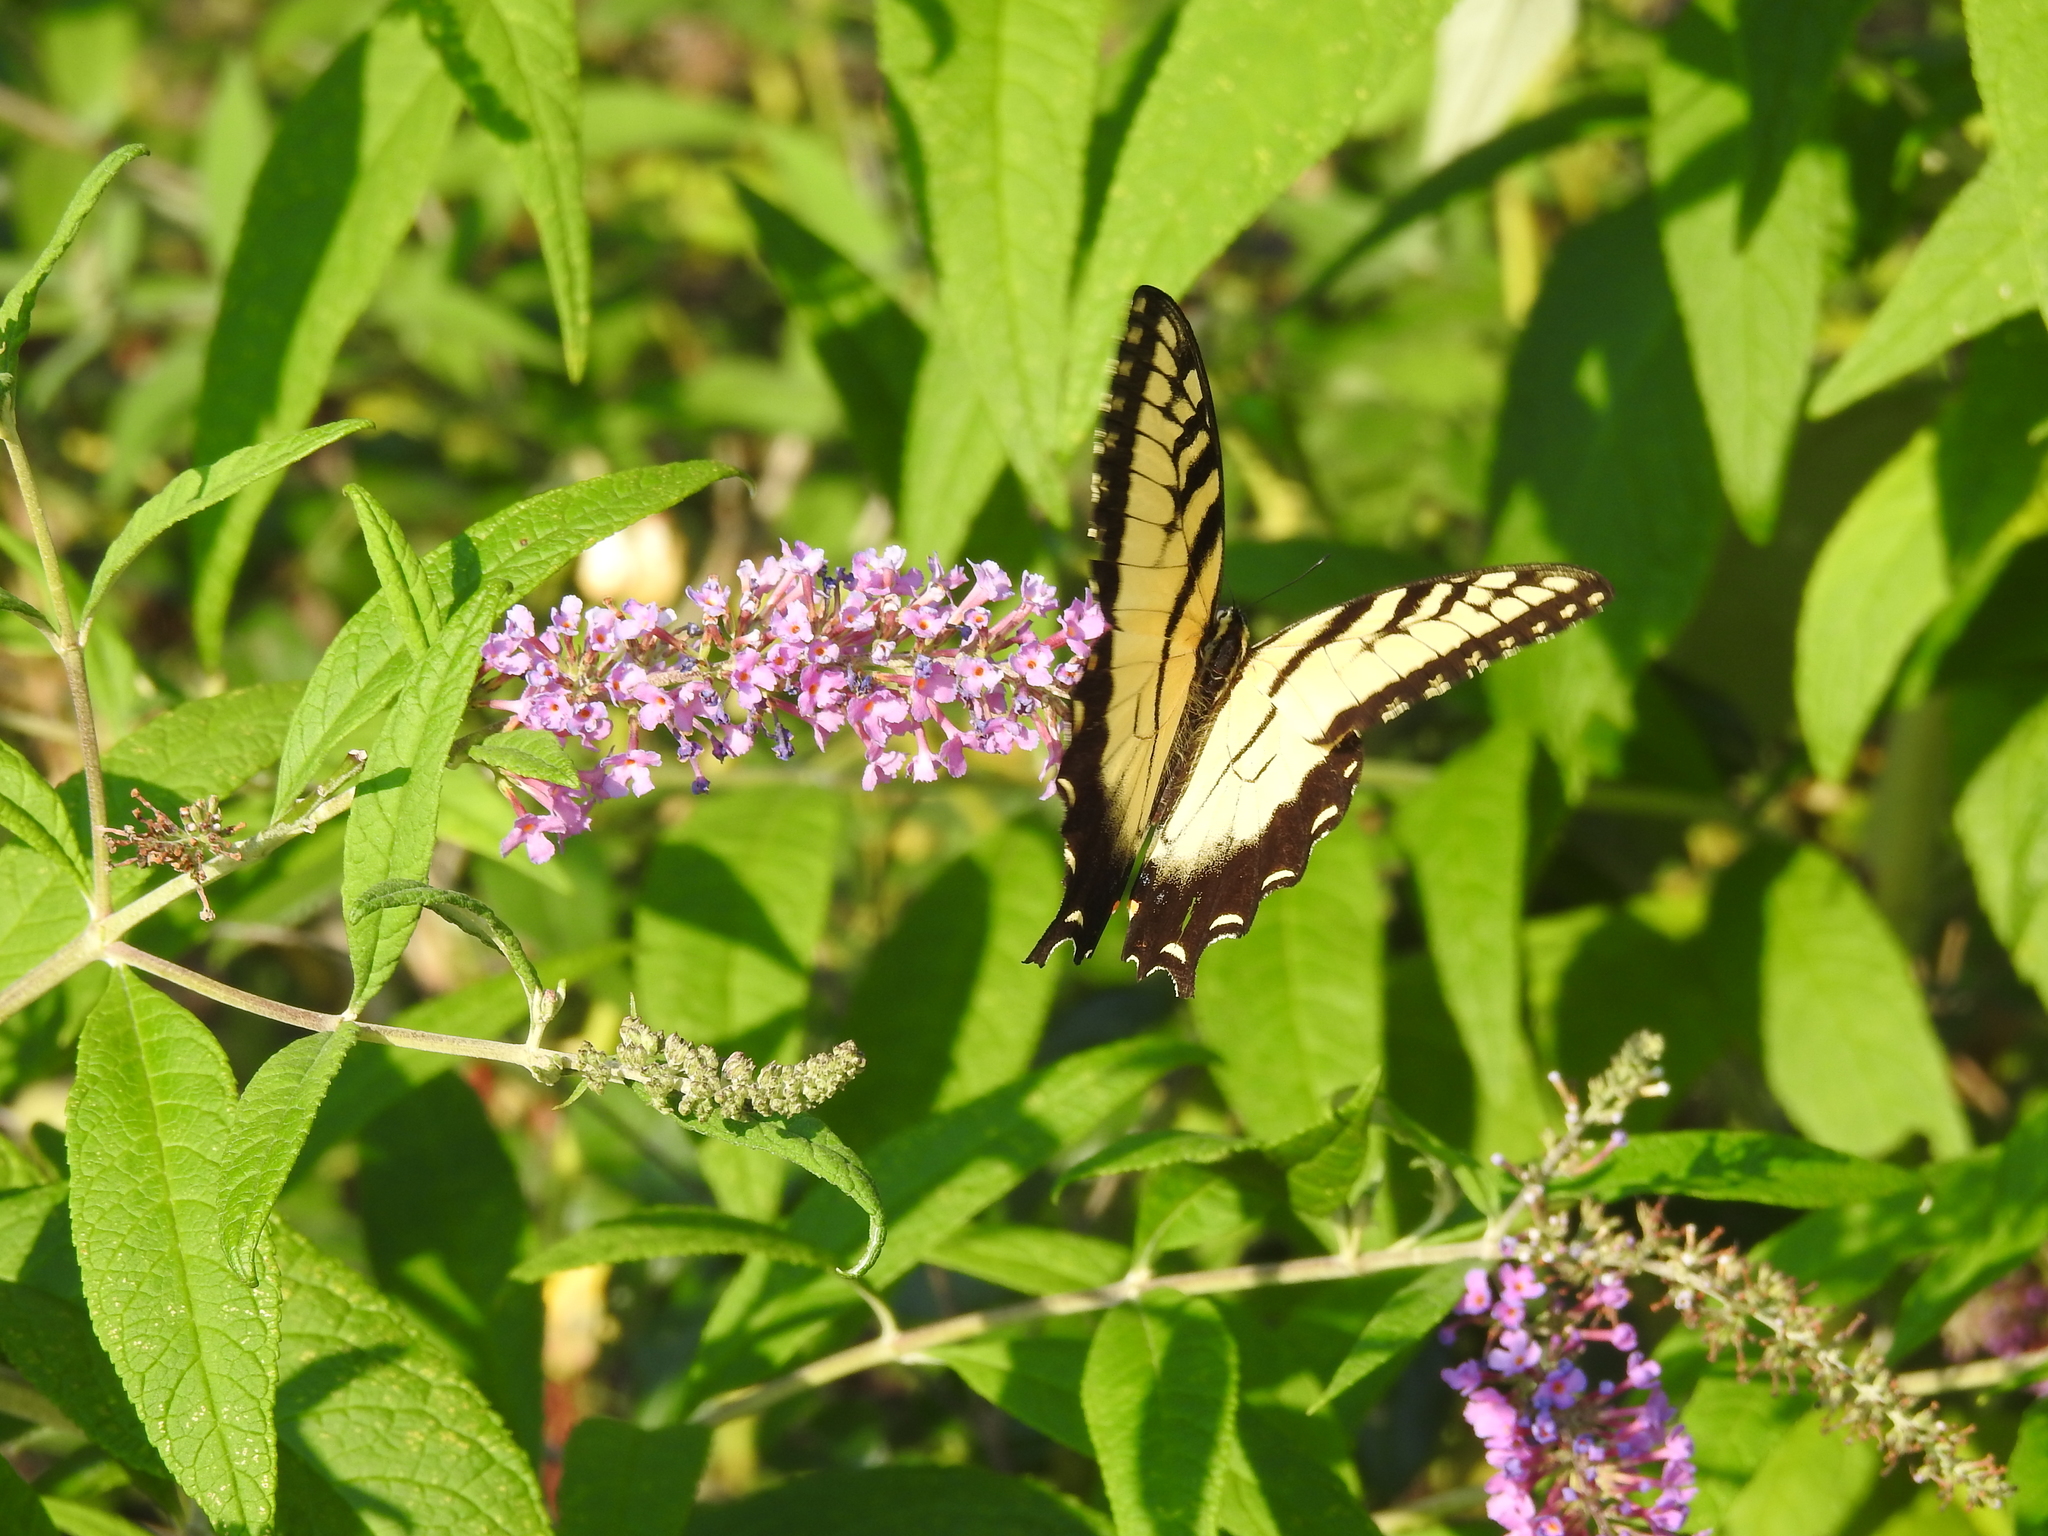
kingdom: Animalia
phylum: Arthropoda
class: Insecta
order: Lepidoptera
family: Papilionidae
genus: Papilio
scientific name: Papilio glaucus
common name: Tiger swallowtail
